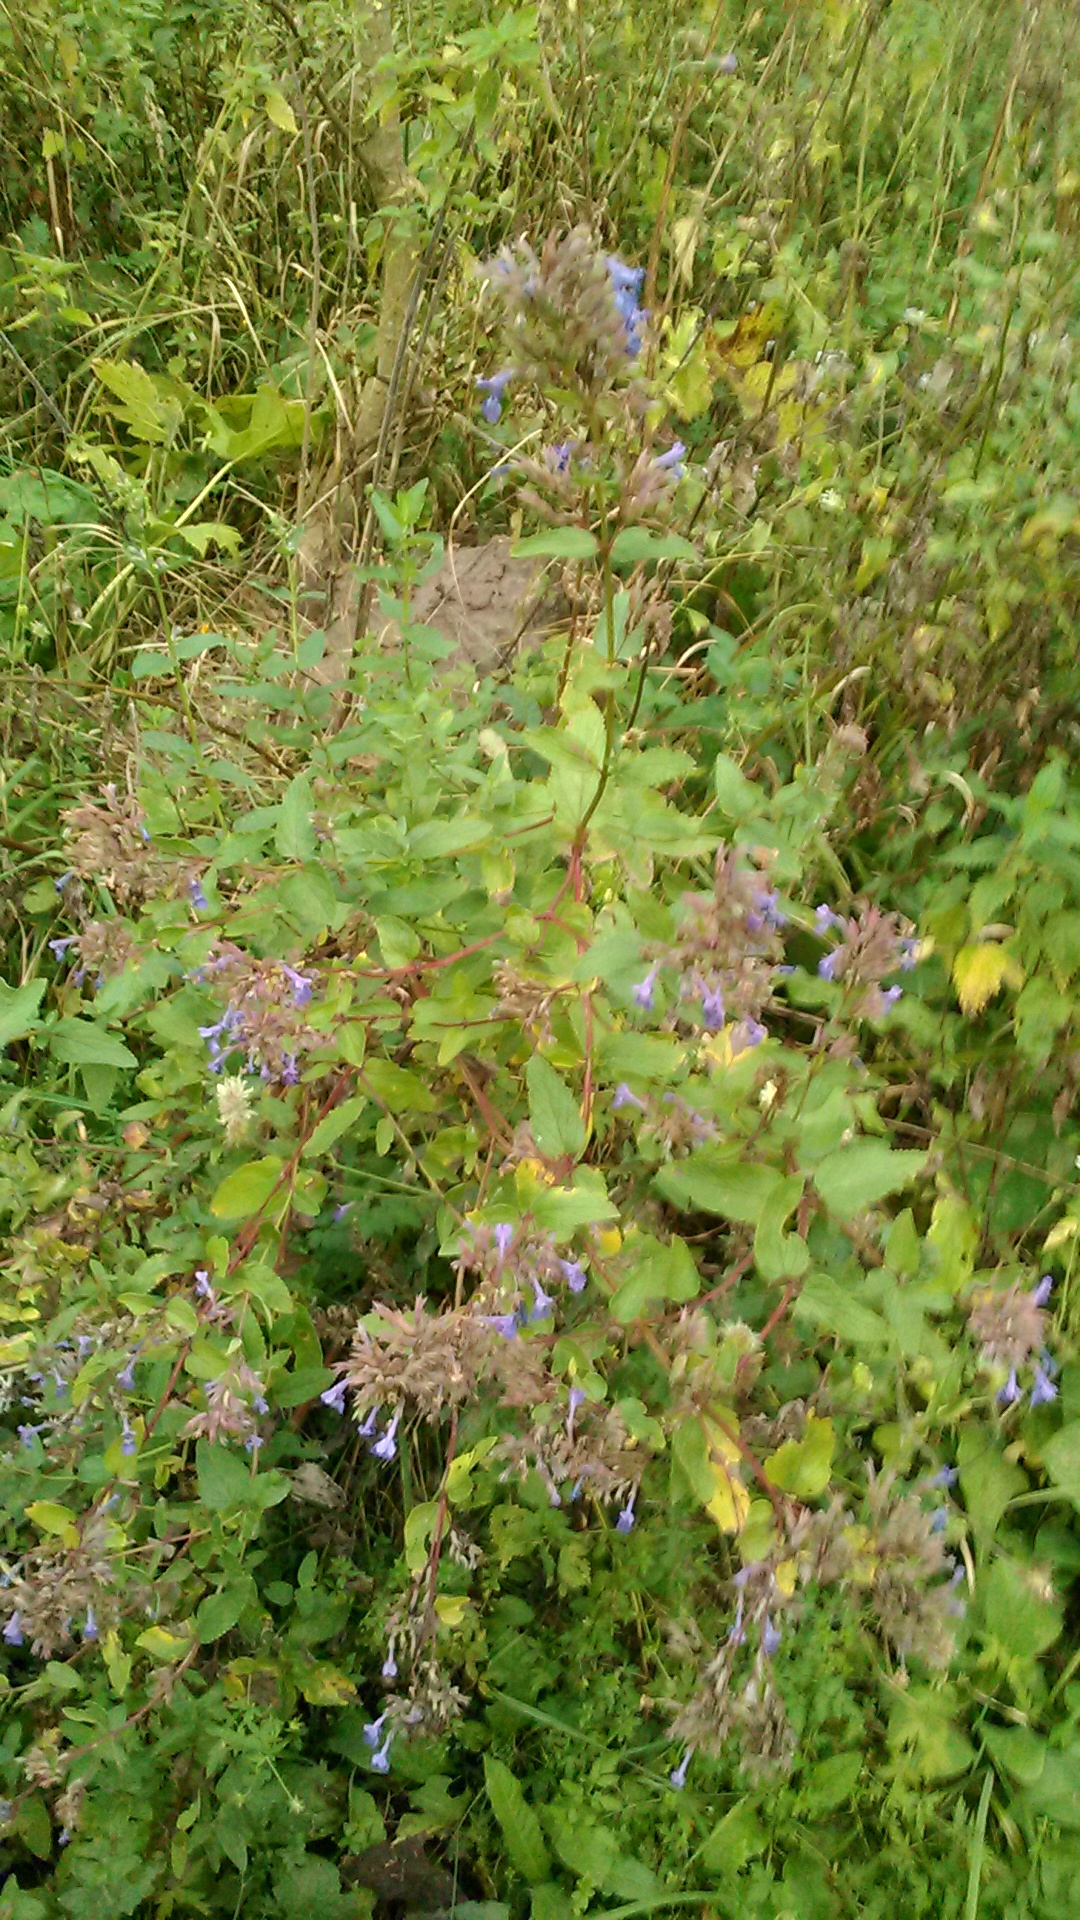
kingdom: Plantae
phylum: Tracheophyta
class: Magnoliopsida
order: Lamiales
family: Lamiaceae
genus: Nepeta
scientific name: Nepeta grandiflora
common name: Caucasus catmint
